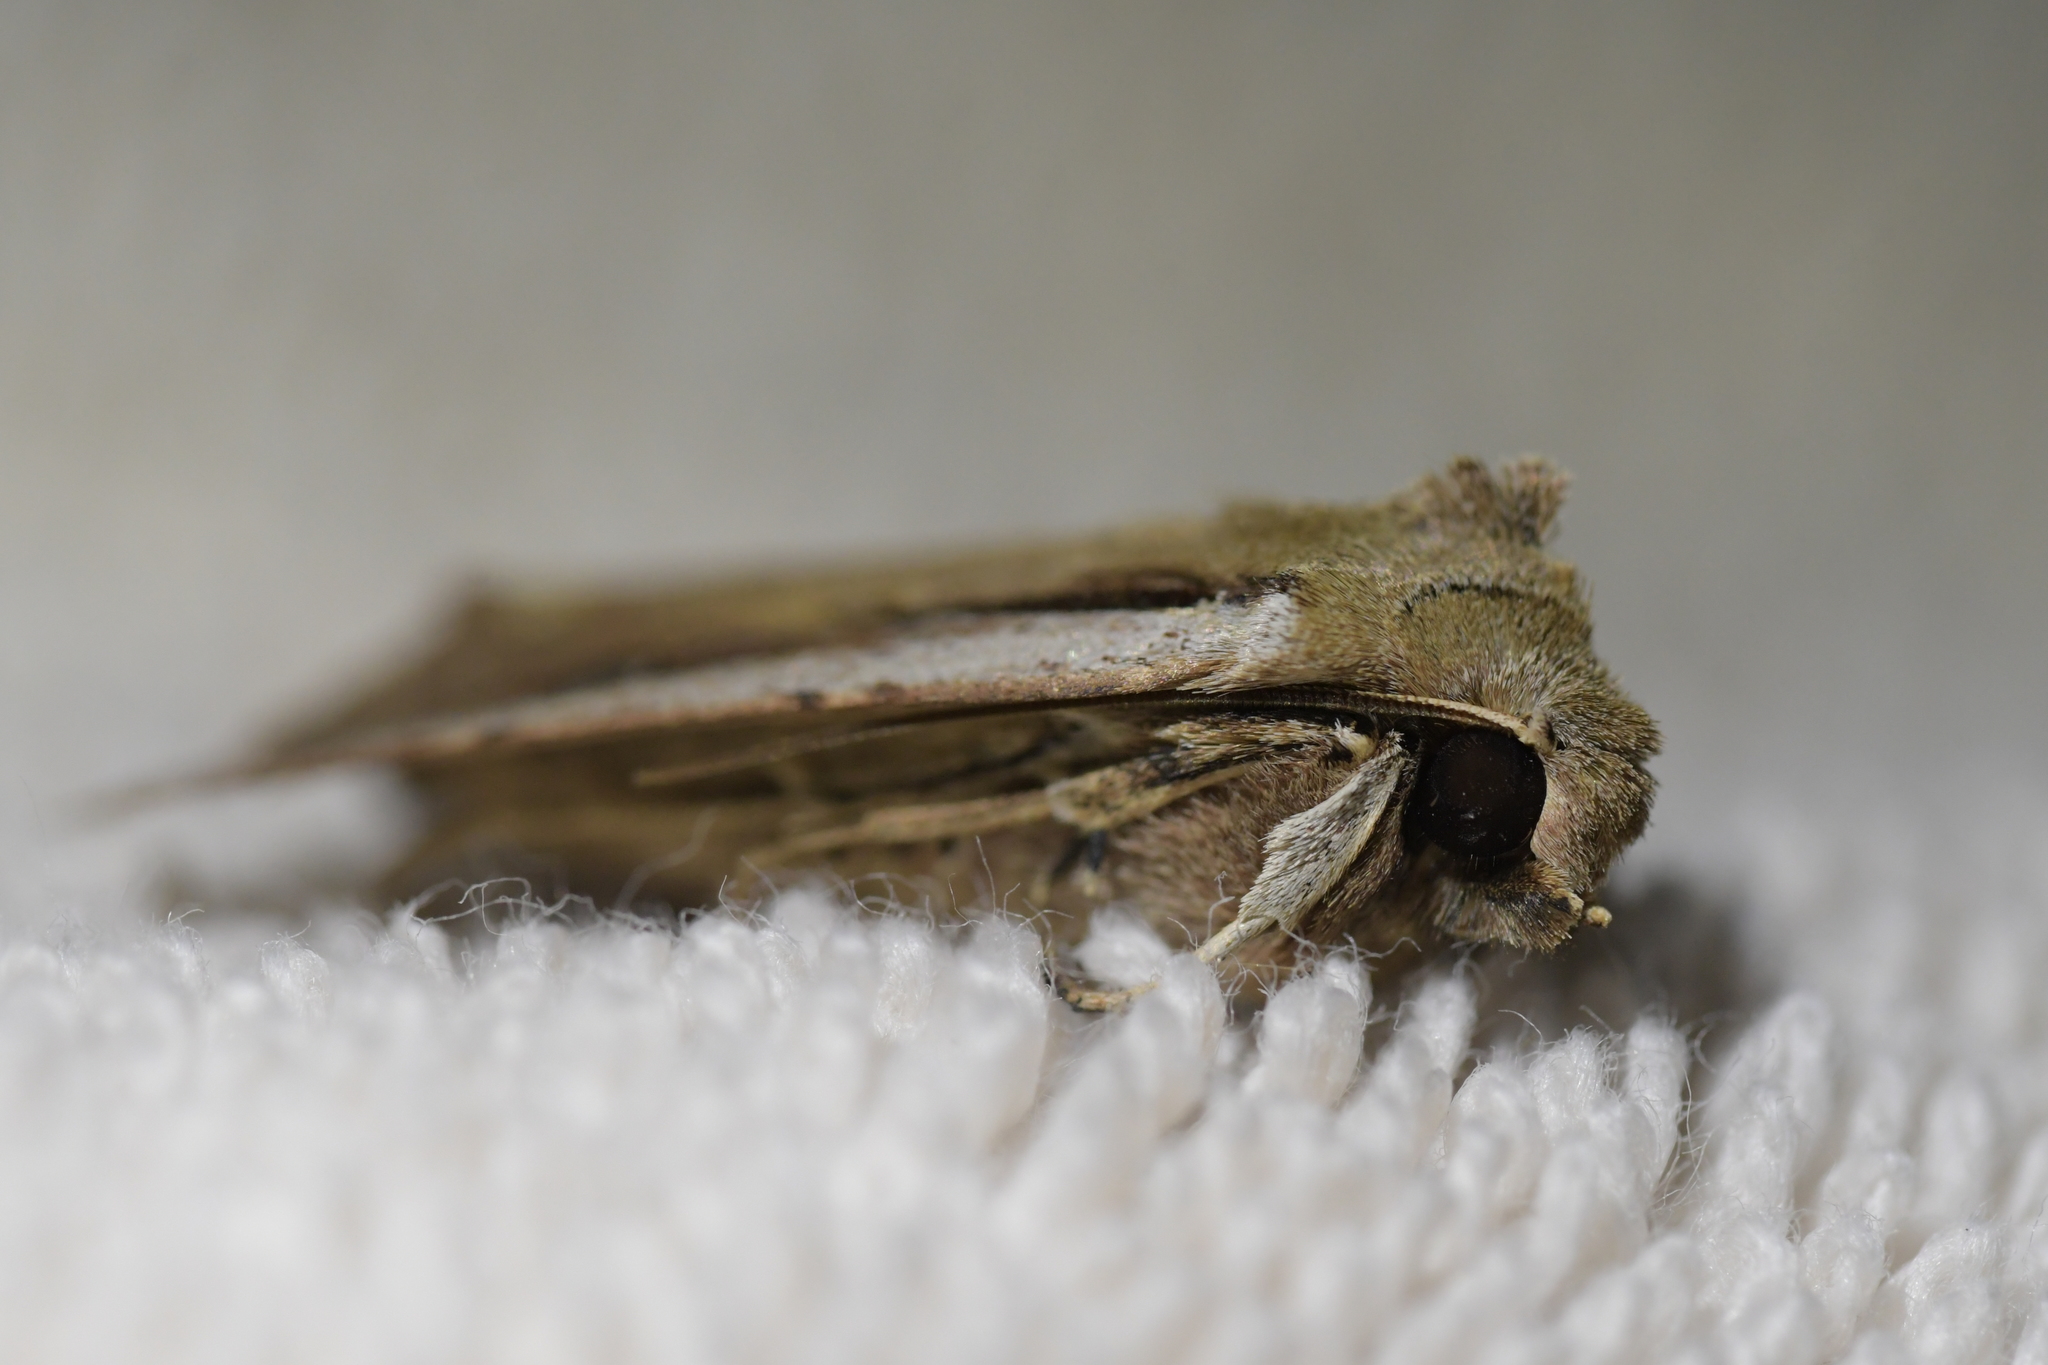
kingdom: Animalia
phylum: Arthropoda
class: Insecta
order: Lepidoptera
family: Noctuidae
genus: Ichneutica
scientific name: Ichneutica atristriga
